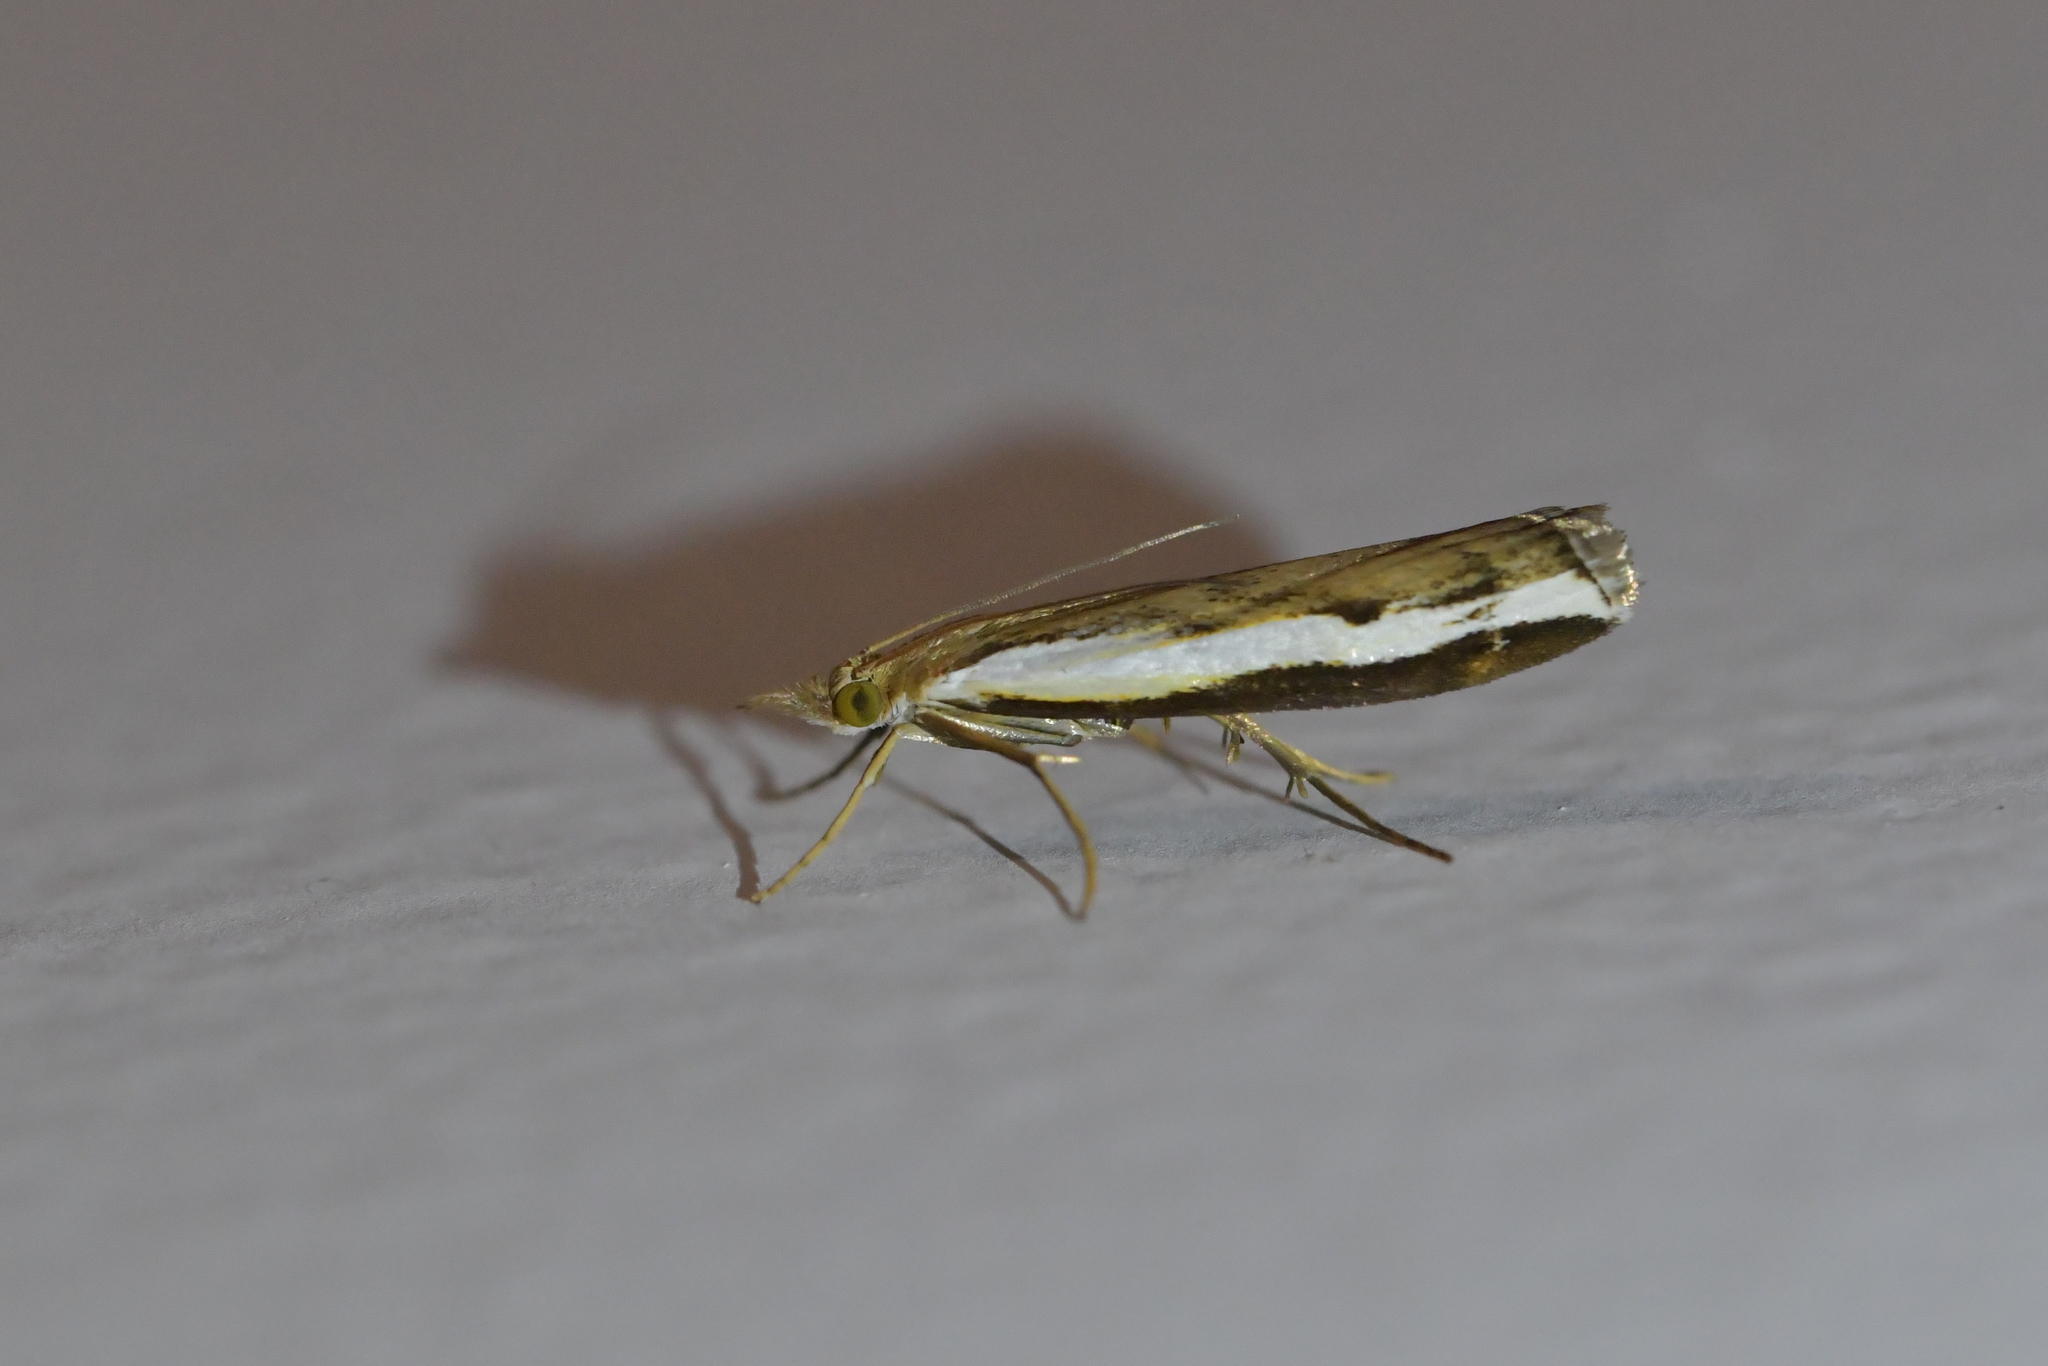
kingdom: Animalia
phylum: Arthropoda
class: Insecta
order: Lepidoptera
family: Crambidae
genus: Orocrambus
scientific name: Orocrambus flexuosellus
